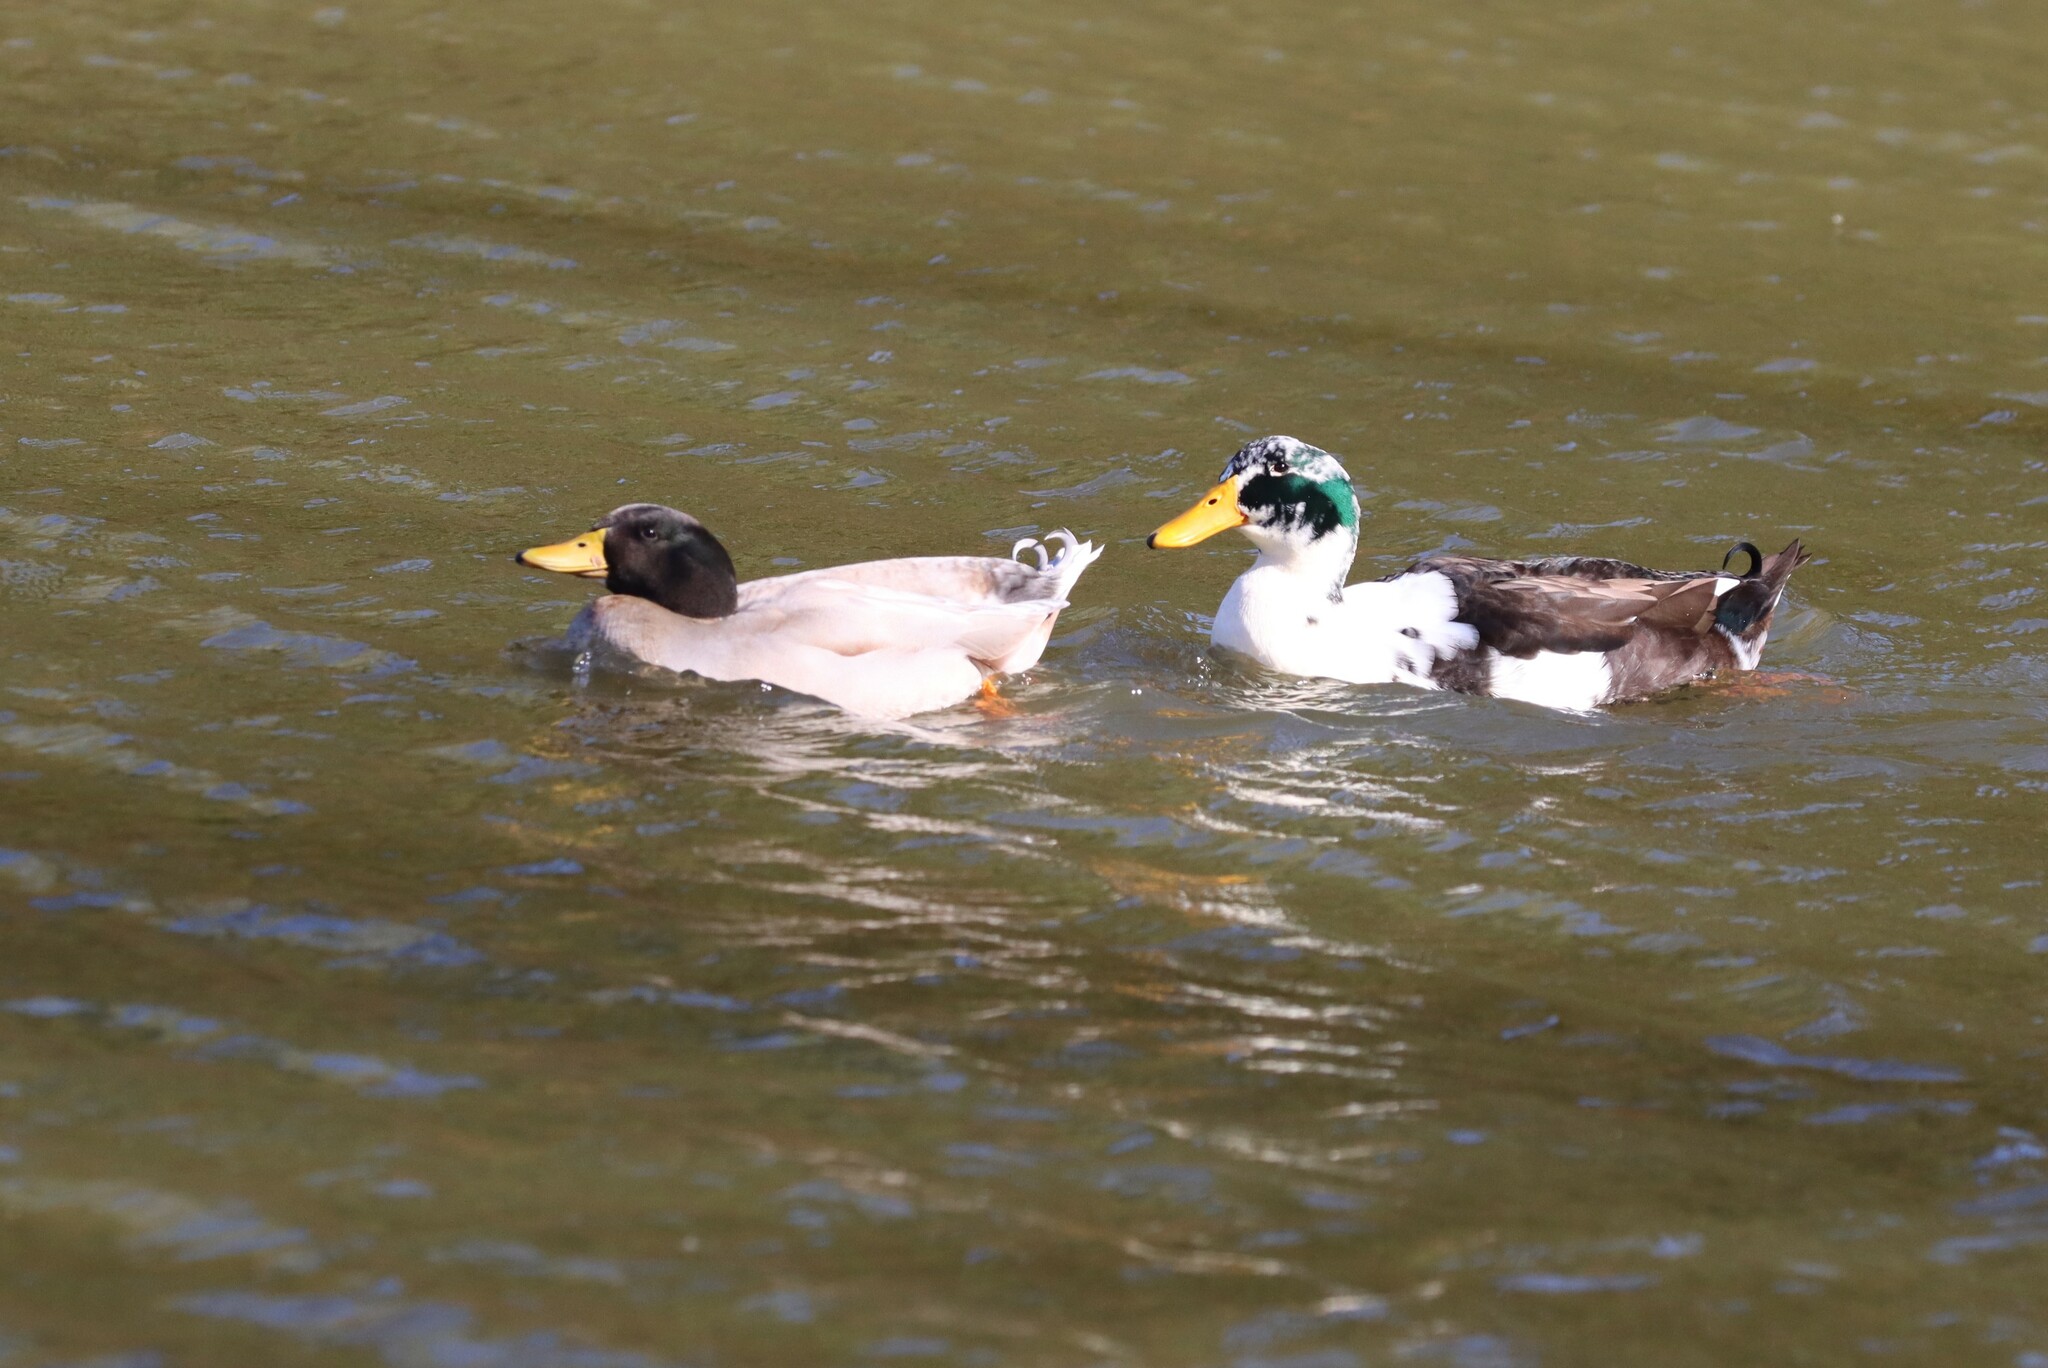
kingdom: Animalia
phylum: Chordata
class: Aves
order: Anseriformes
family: Anatidae
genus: Anas
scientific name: Anas platyrhynchos
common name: Mallard
